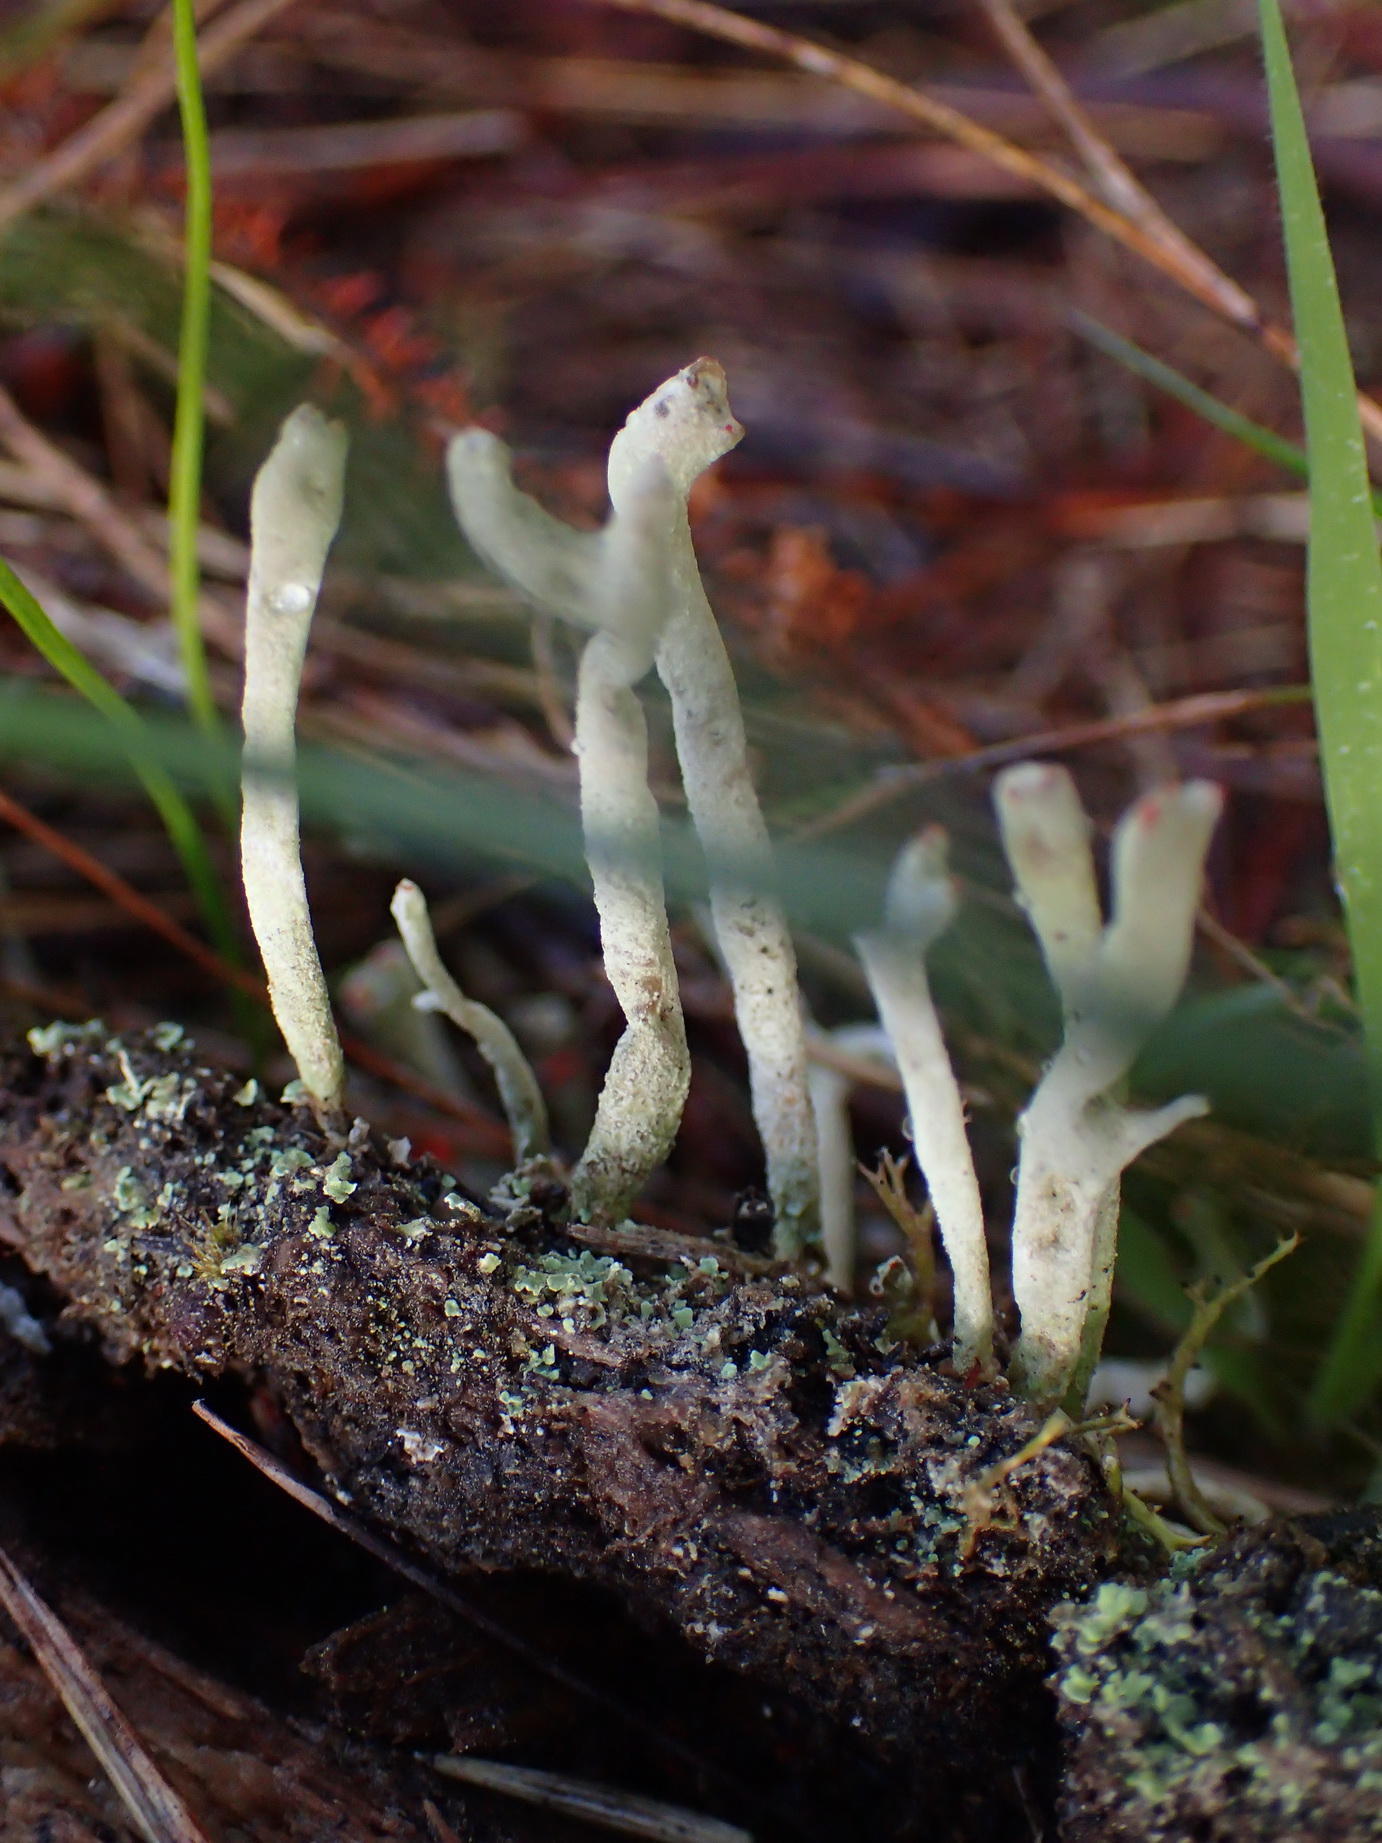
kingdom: Fungi
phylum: Ascomycota
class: Lecanoromycetes
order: Lecanorales
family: Cladoniaceae
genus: Cladonia
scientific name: Cladonia macilenta
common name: Lipstick powderhorn
